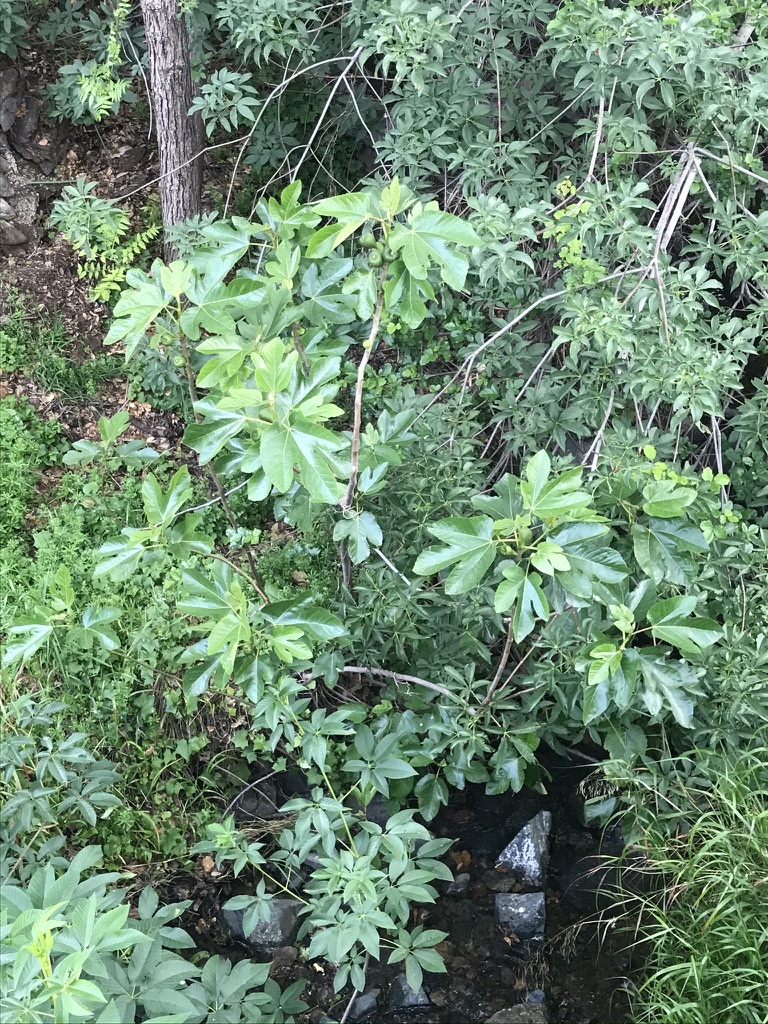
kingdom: Plantae
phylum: Tracheophyta
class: Magnoliopsida
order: Rosales
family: Moraceae
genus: Ficus
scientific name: Ficus carica
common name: Fig
